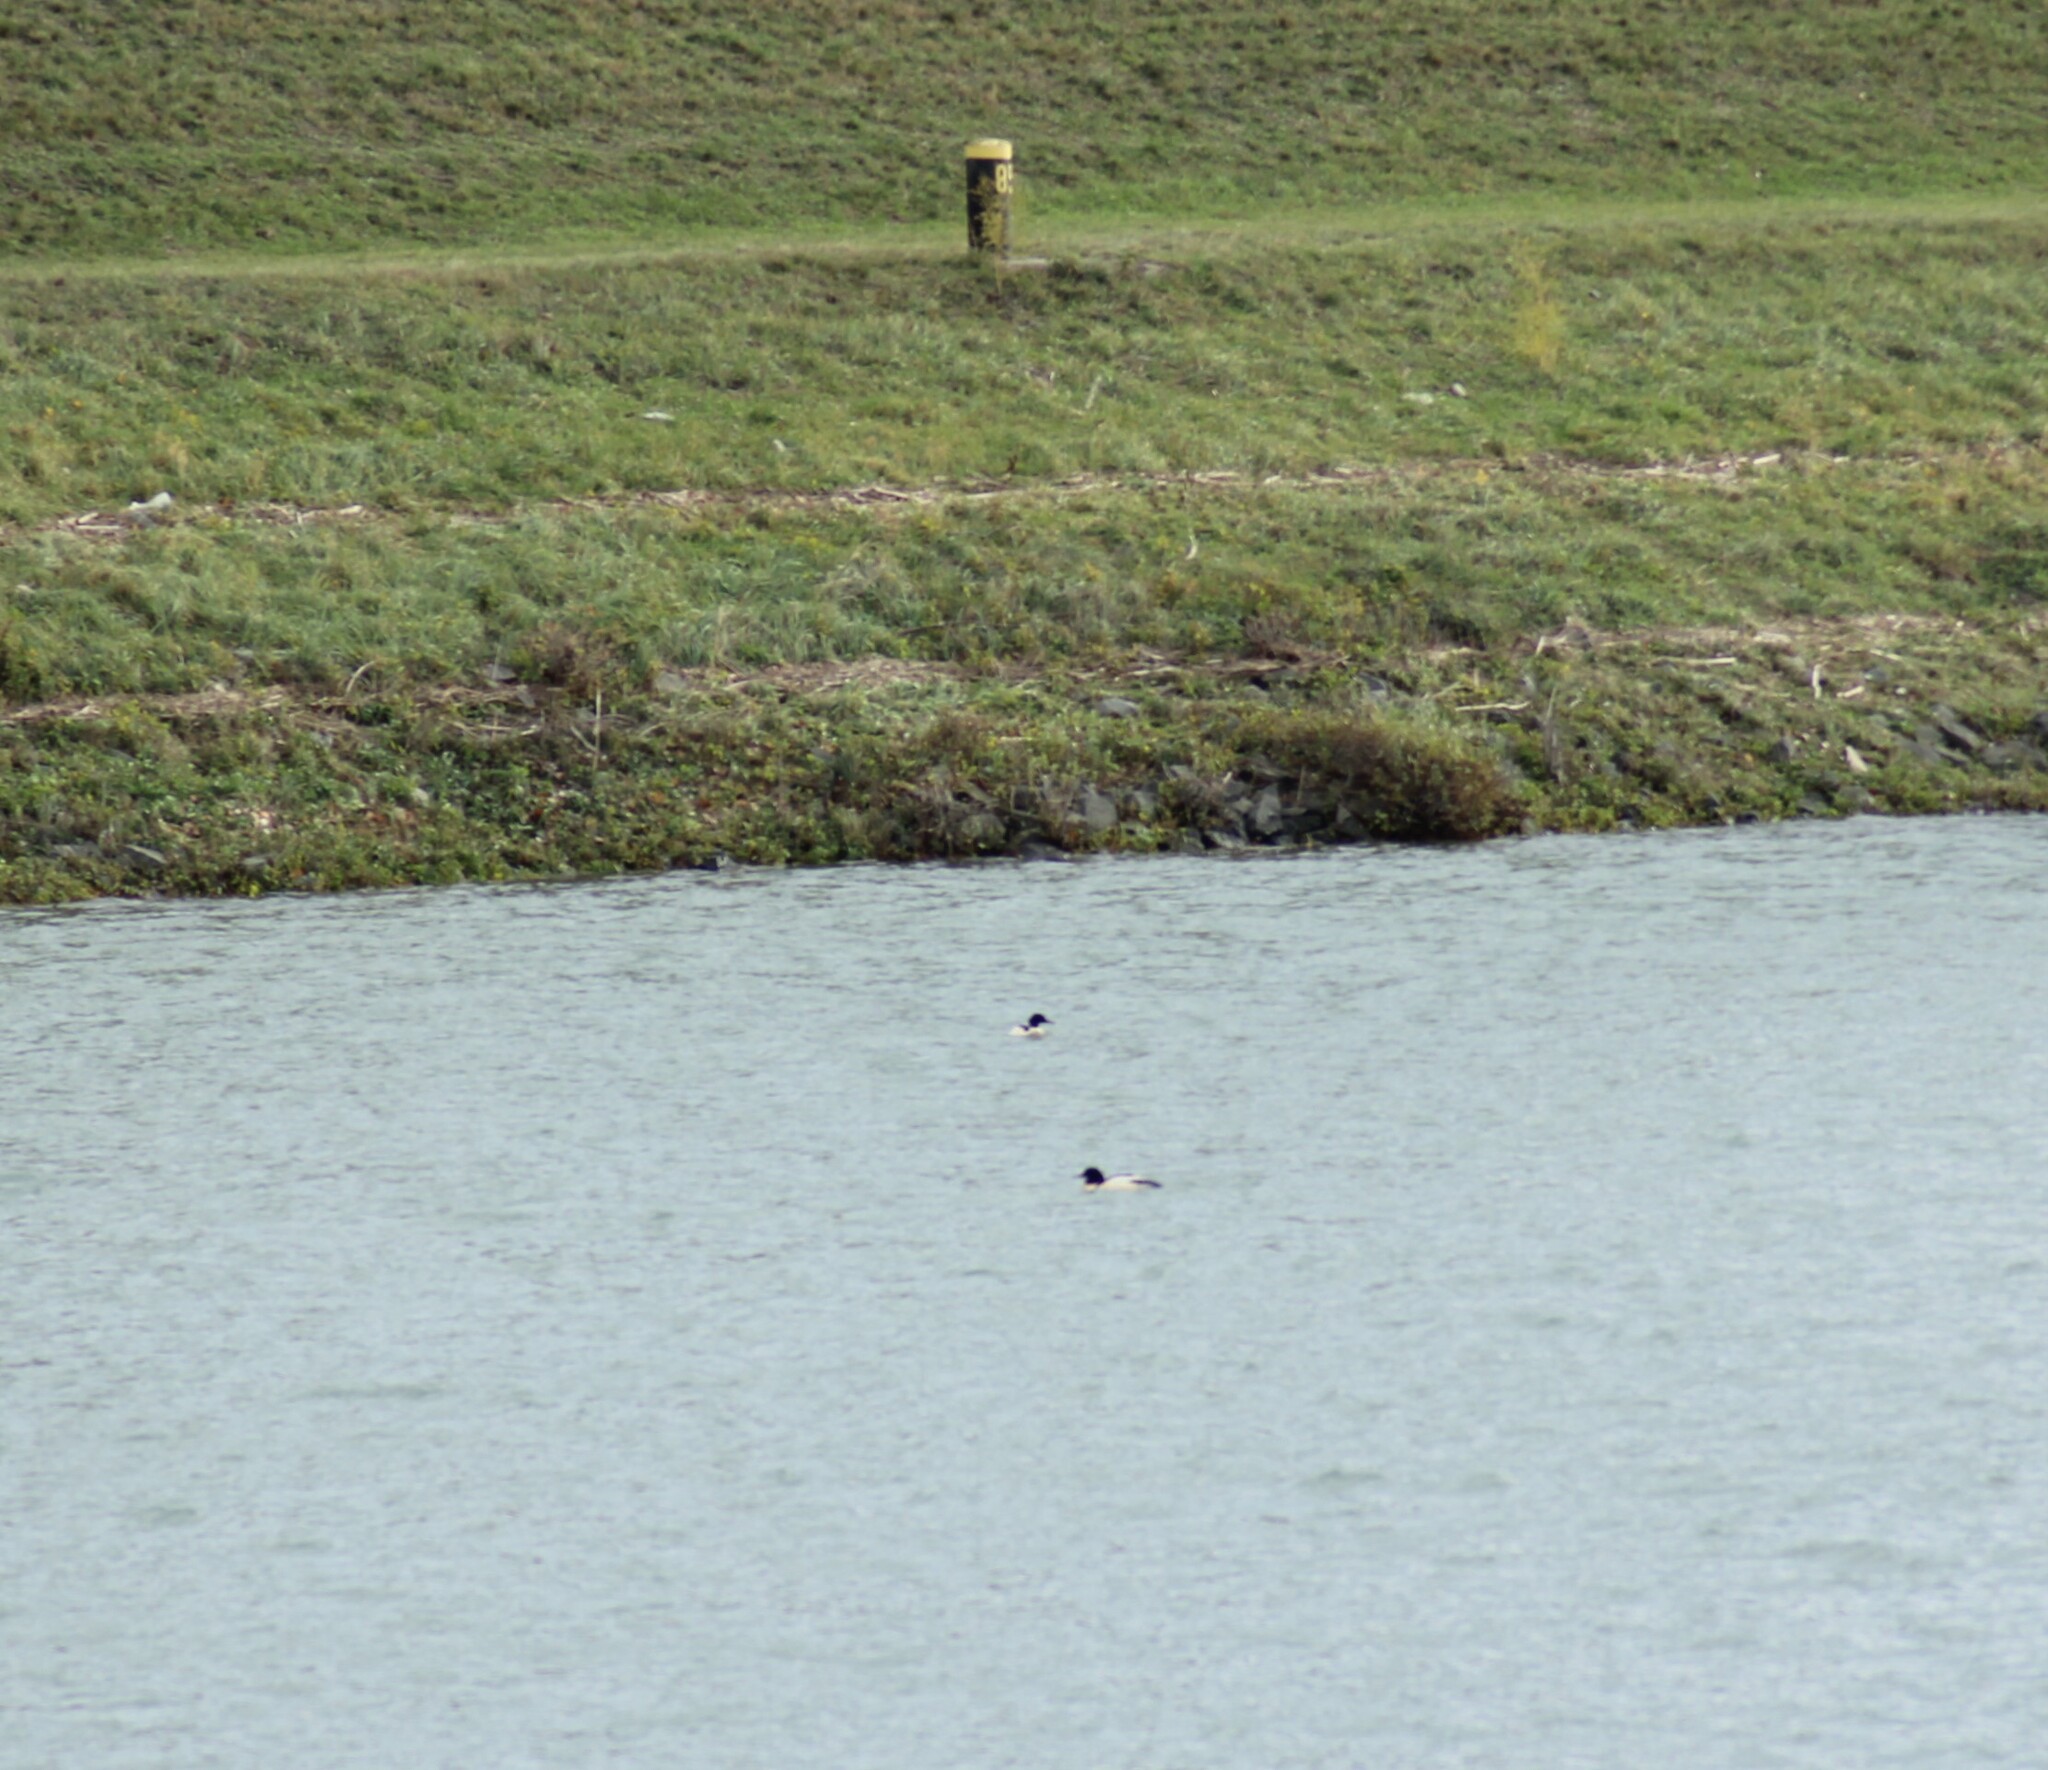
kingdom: Animalia
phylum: Chordata
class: Aves
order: Anseriformes
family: Anatidae
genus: Mergus
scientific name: Mergus merganser
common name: Common merganser
